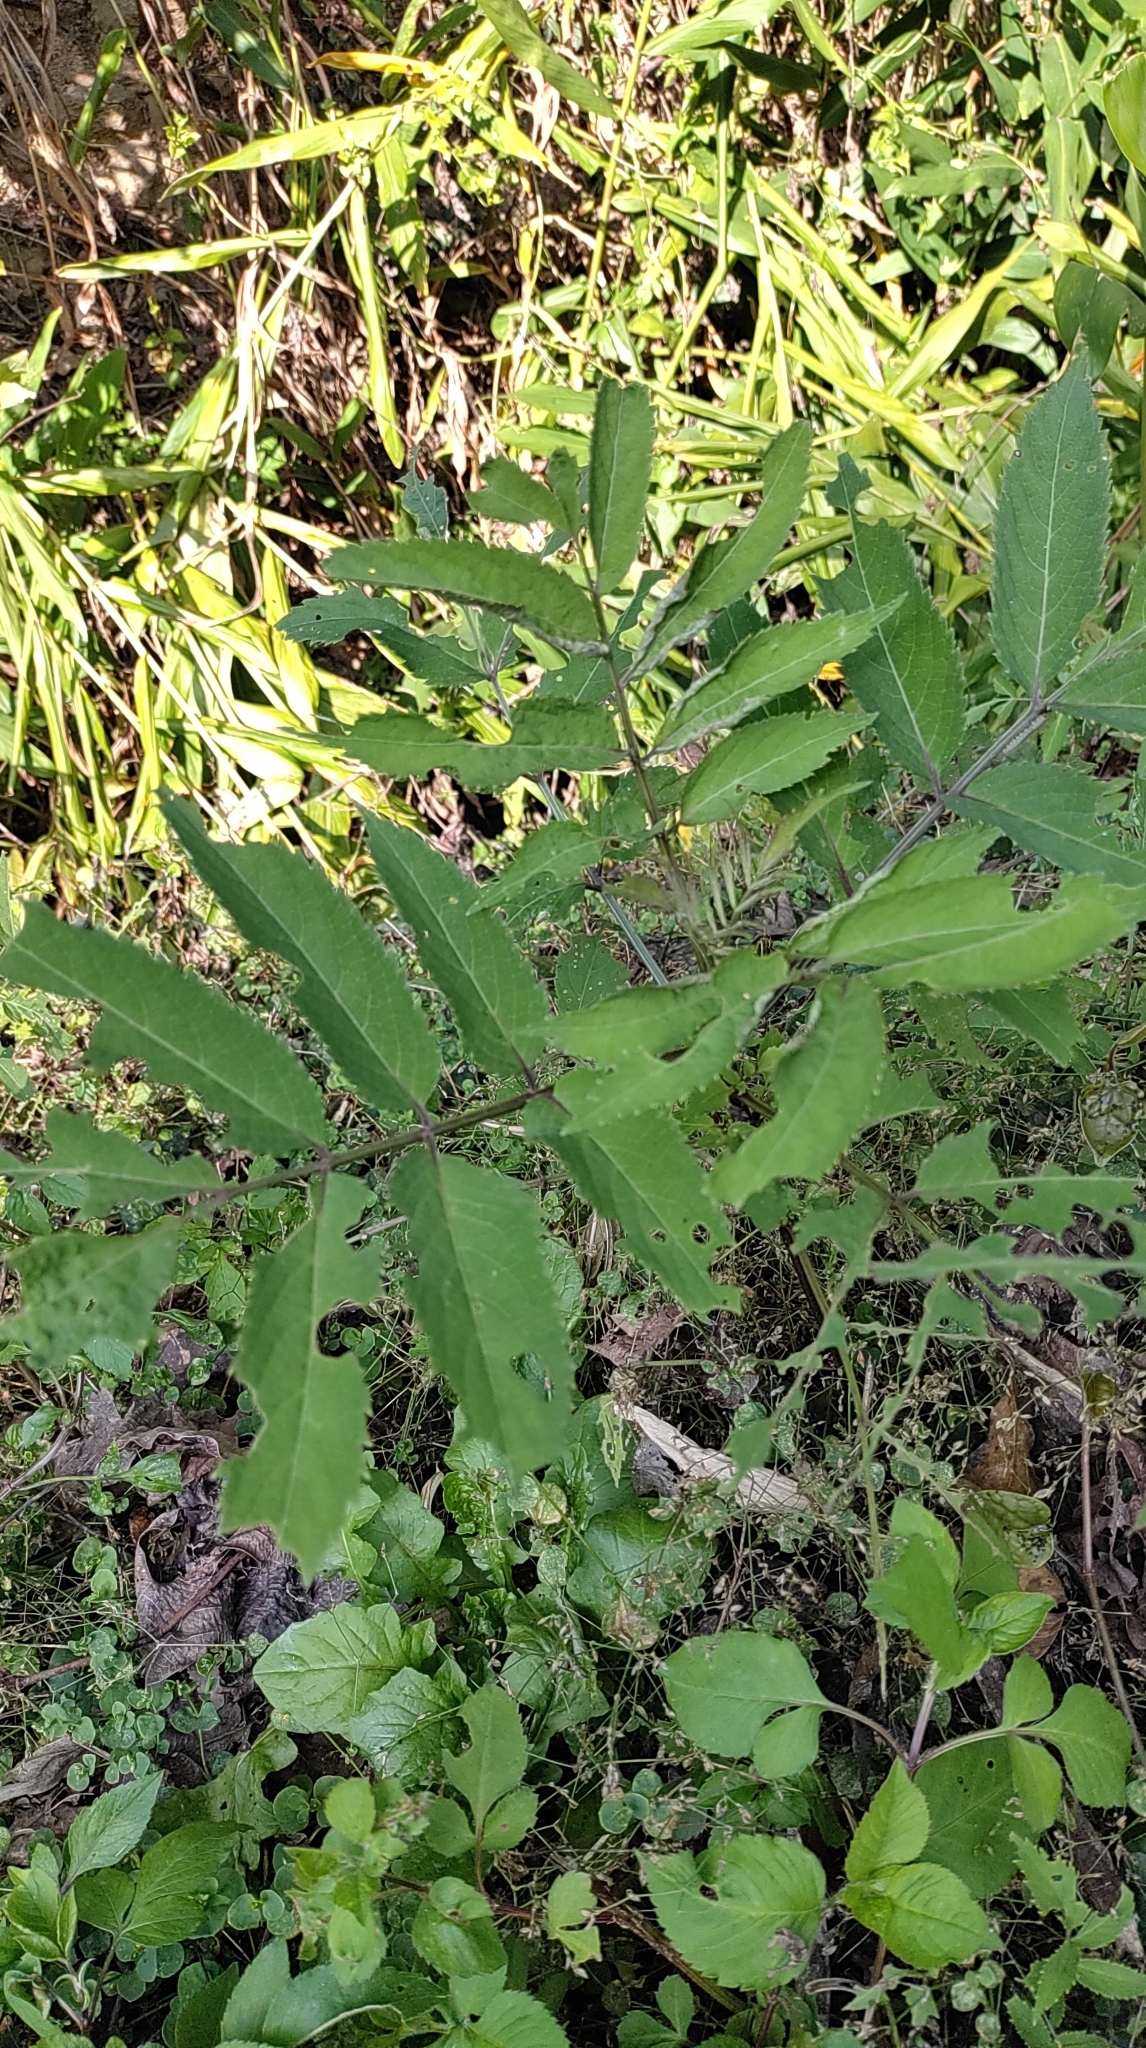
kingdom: Plantae
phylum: Tracheophyta
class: Magnoliopsida
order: Dipsacales
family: Viburnaceae
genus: Sambucus
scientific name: Sambucus javanica
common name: Chinese elder
